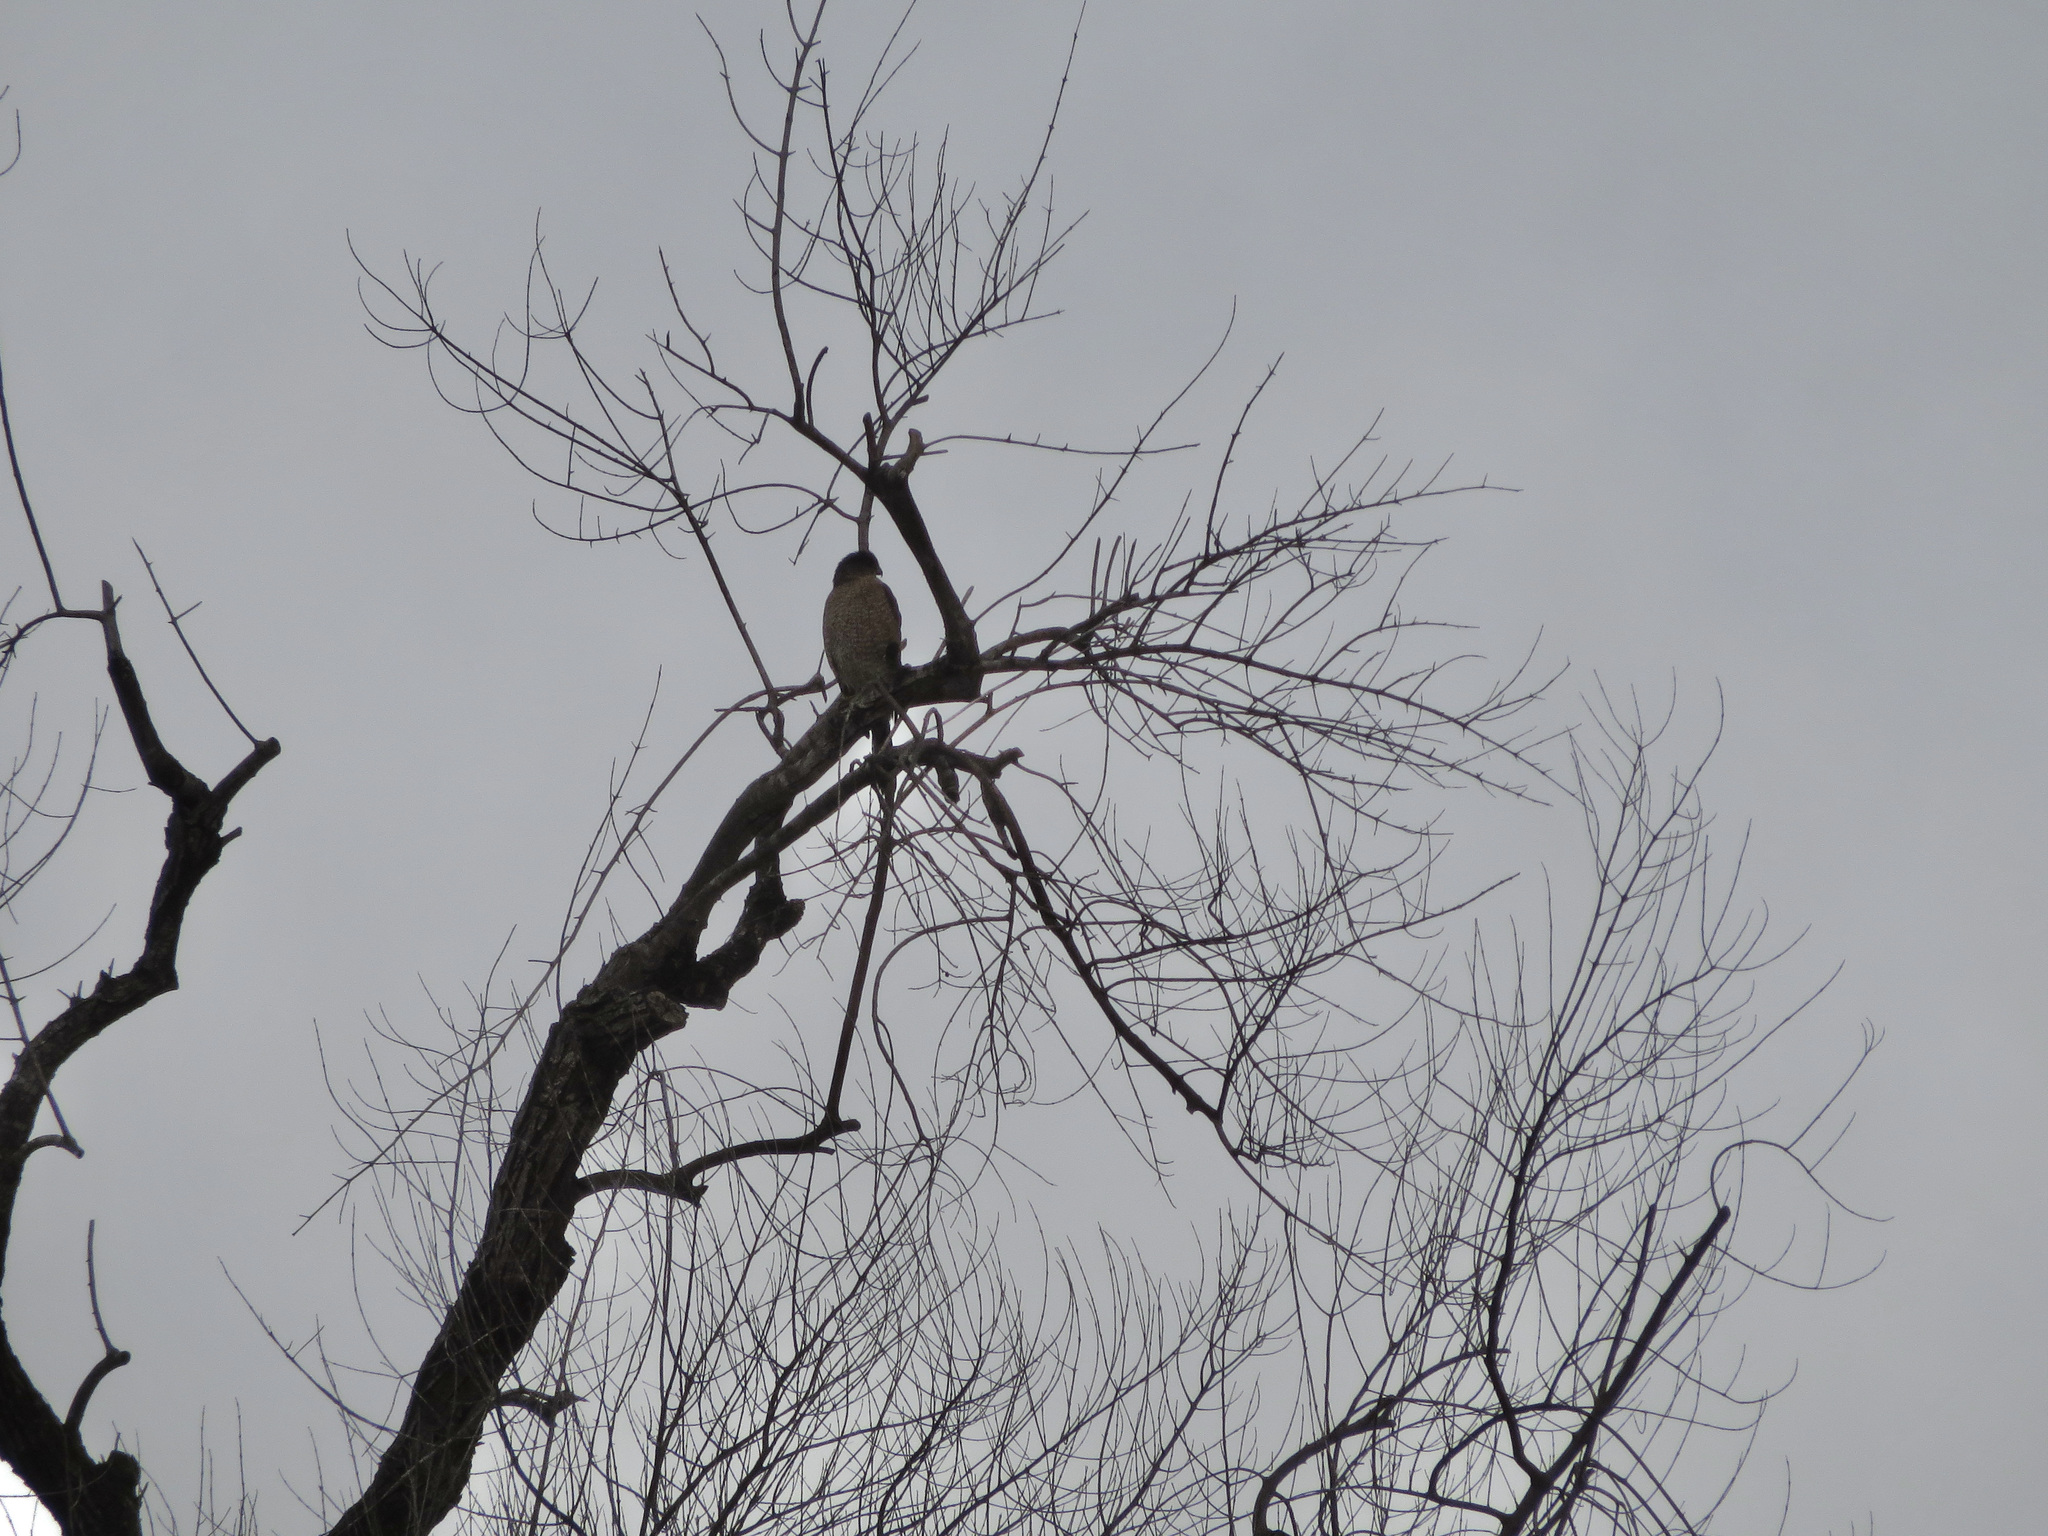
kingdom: Animalia
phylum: Chordata
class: Aves
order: Accipitriformes
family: Accipitridae
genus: Accipiter
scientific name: Accipiter cooperii
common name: Cooper's hawk
